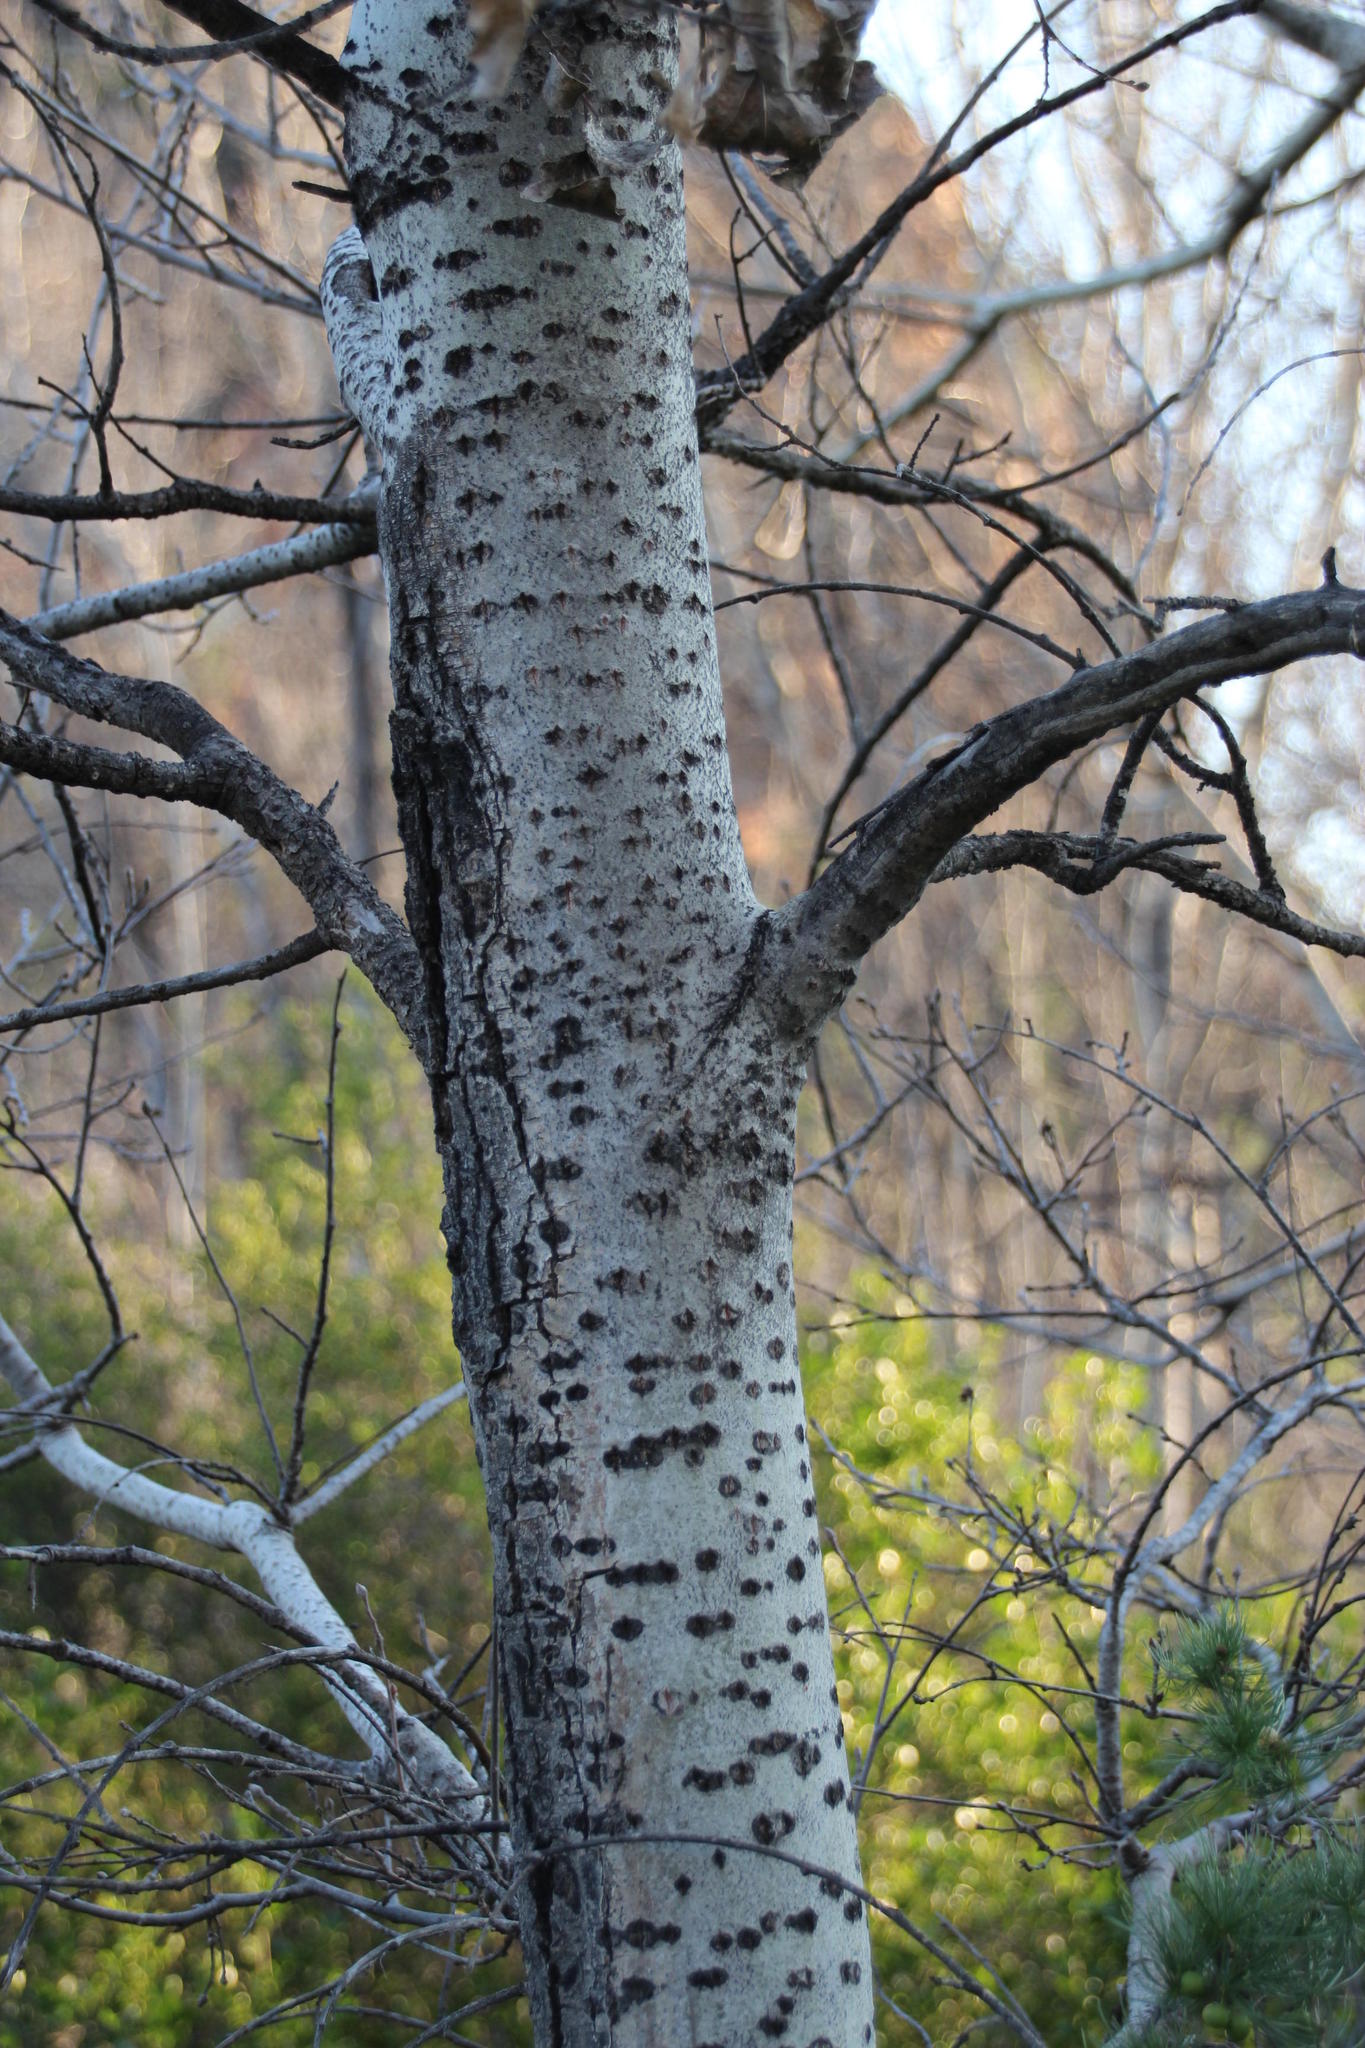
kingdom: Plantae
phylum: Tracheophyta
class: Magnoliopsida
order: Malpighiales
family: Salicaceae
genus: Populus
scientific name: Populus canescens
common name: Gray poplar
